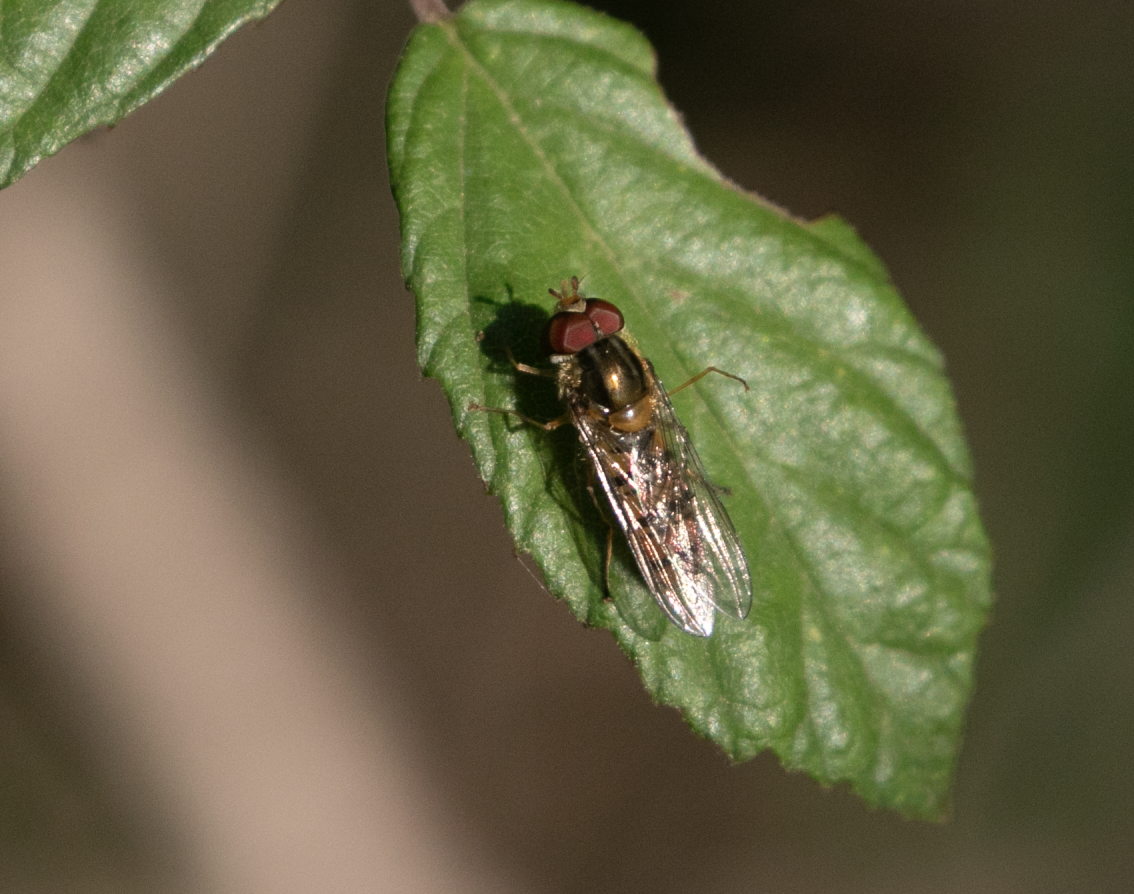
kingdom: Animalia
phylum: Arthropoda
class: Insecta
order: Diptera
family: Syrphidae
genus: Episyrphus
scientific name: Episyrphus balteatus
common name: Marmalade hoverfly
